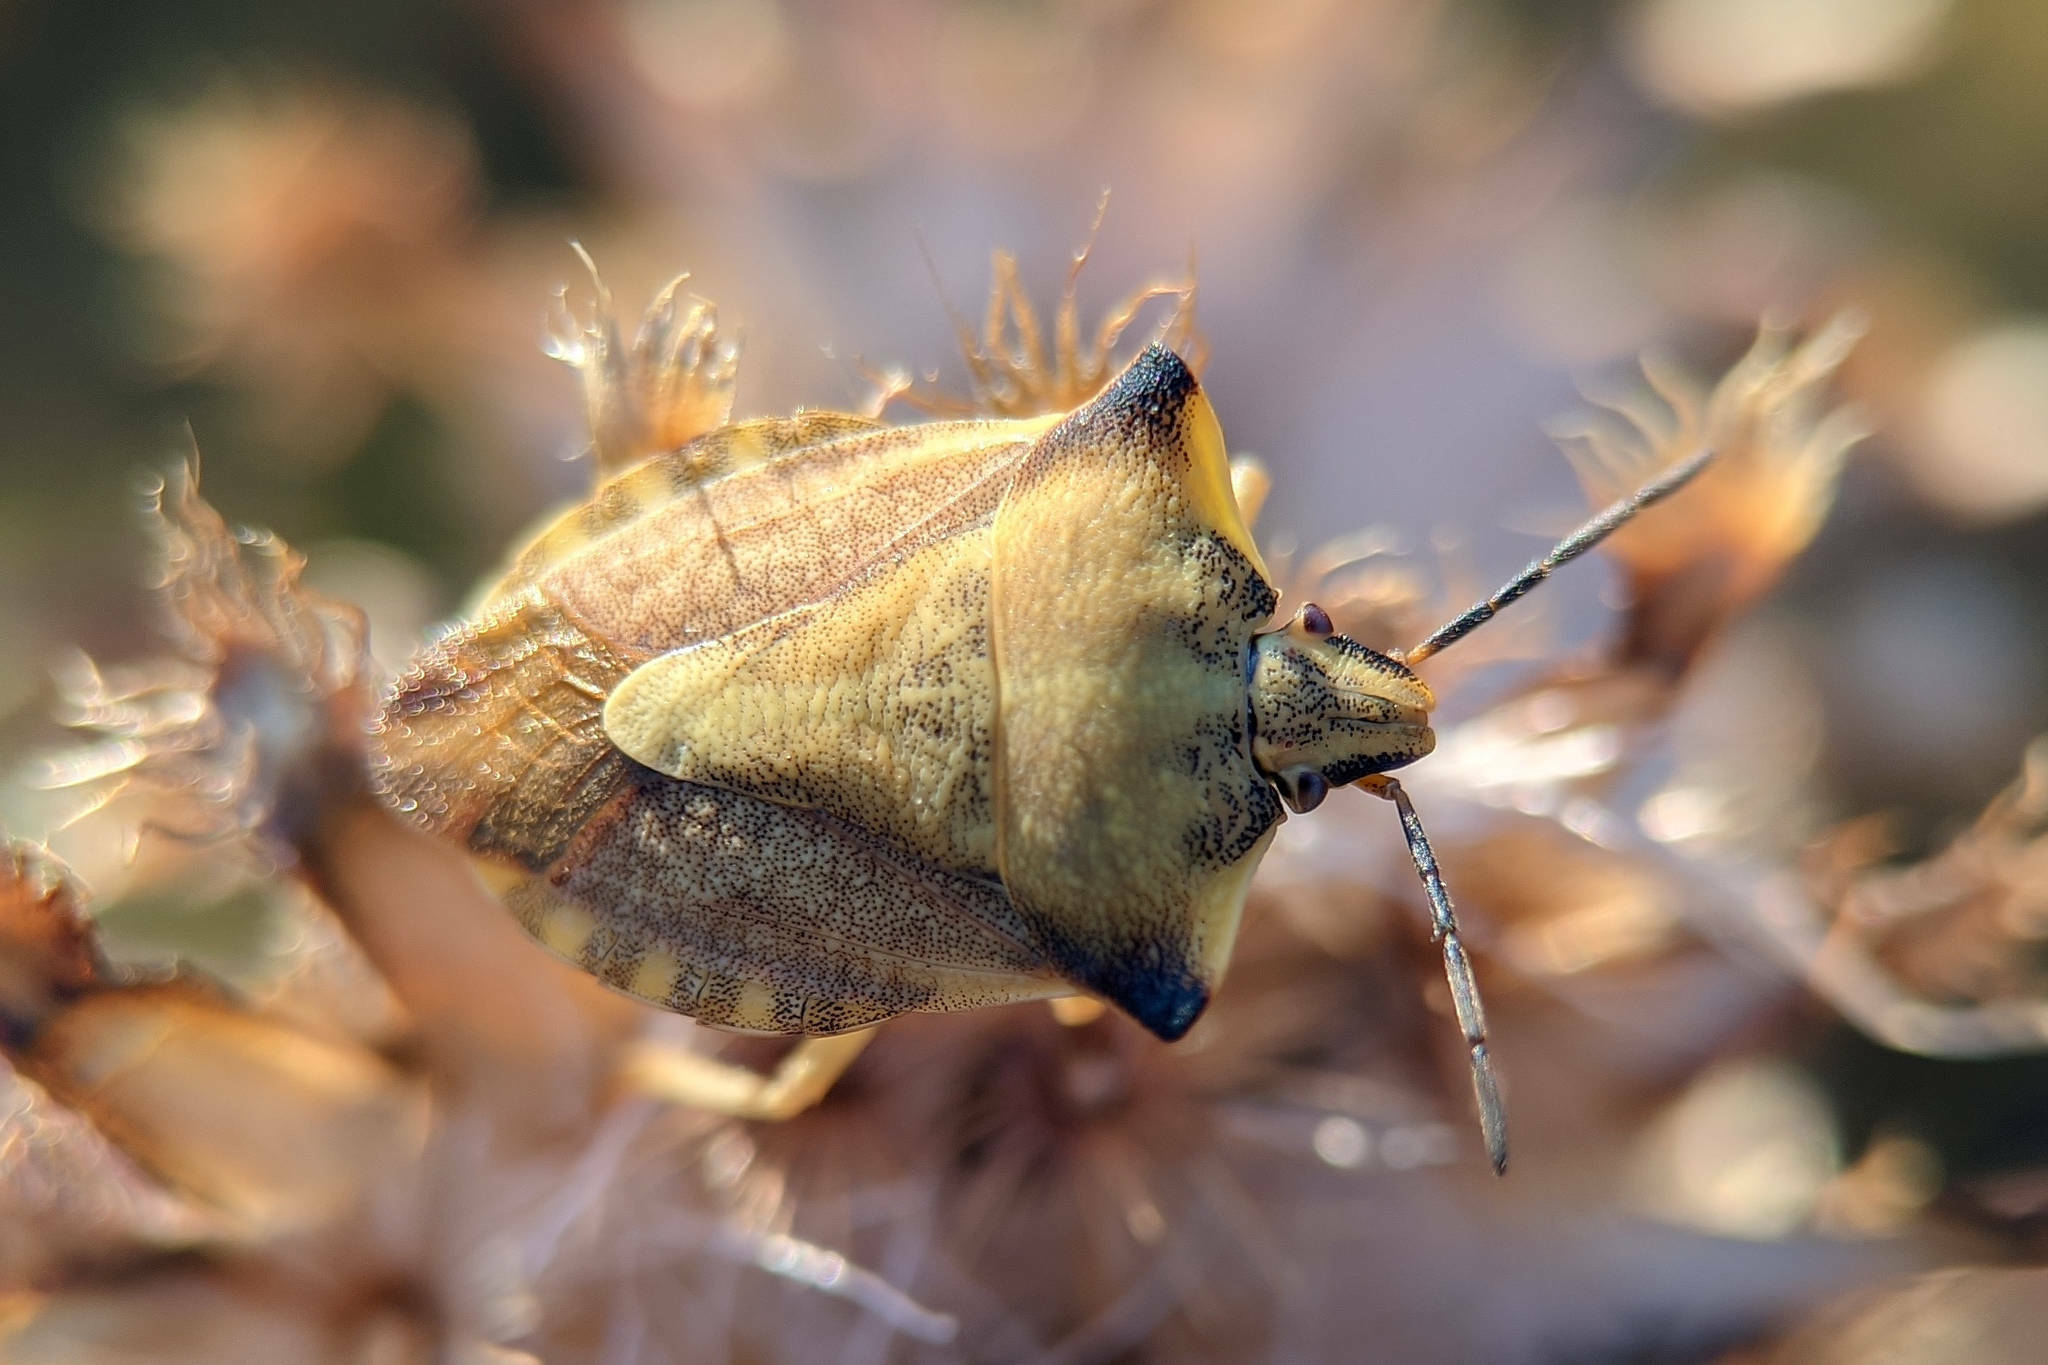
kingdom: Animalia
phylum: Arthropoda
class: Insecta
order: Hemiptera
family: Pentatomidae
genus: Carpocoris
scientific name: Carpocoris fuscispinus
